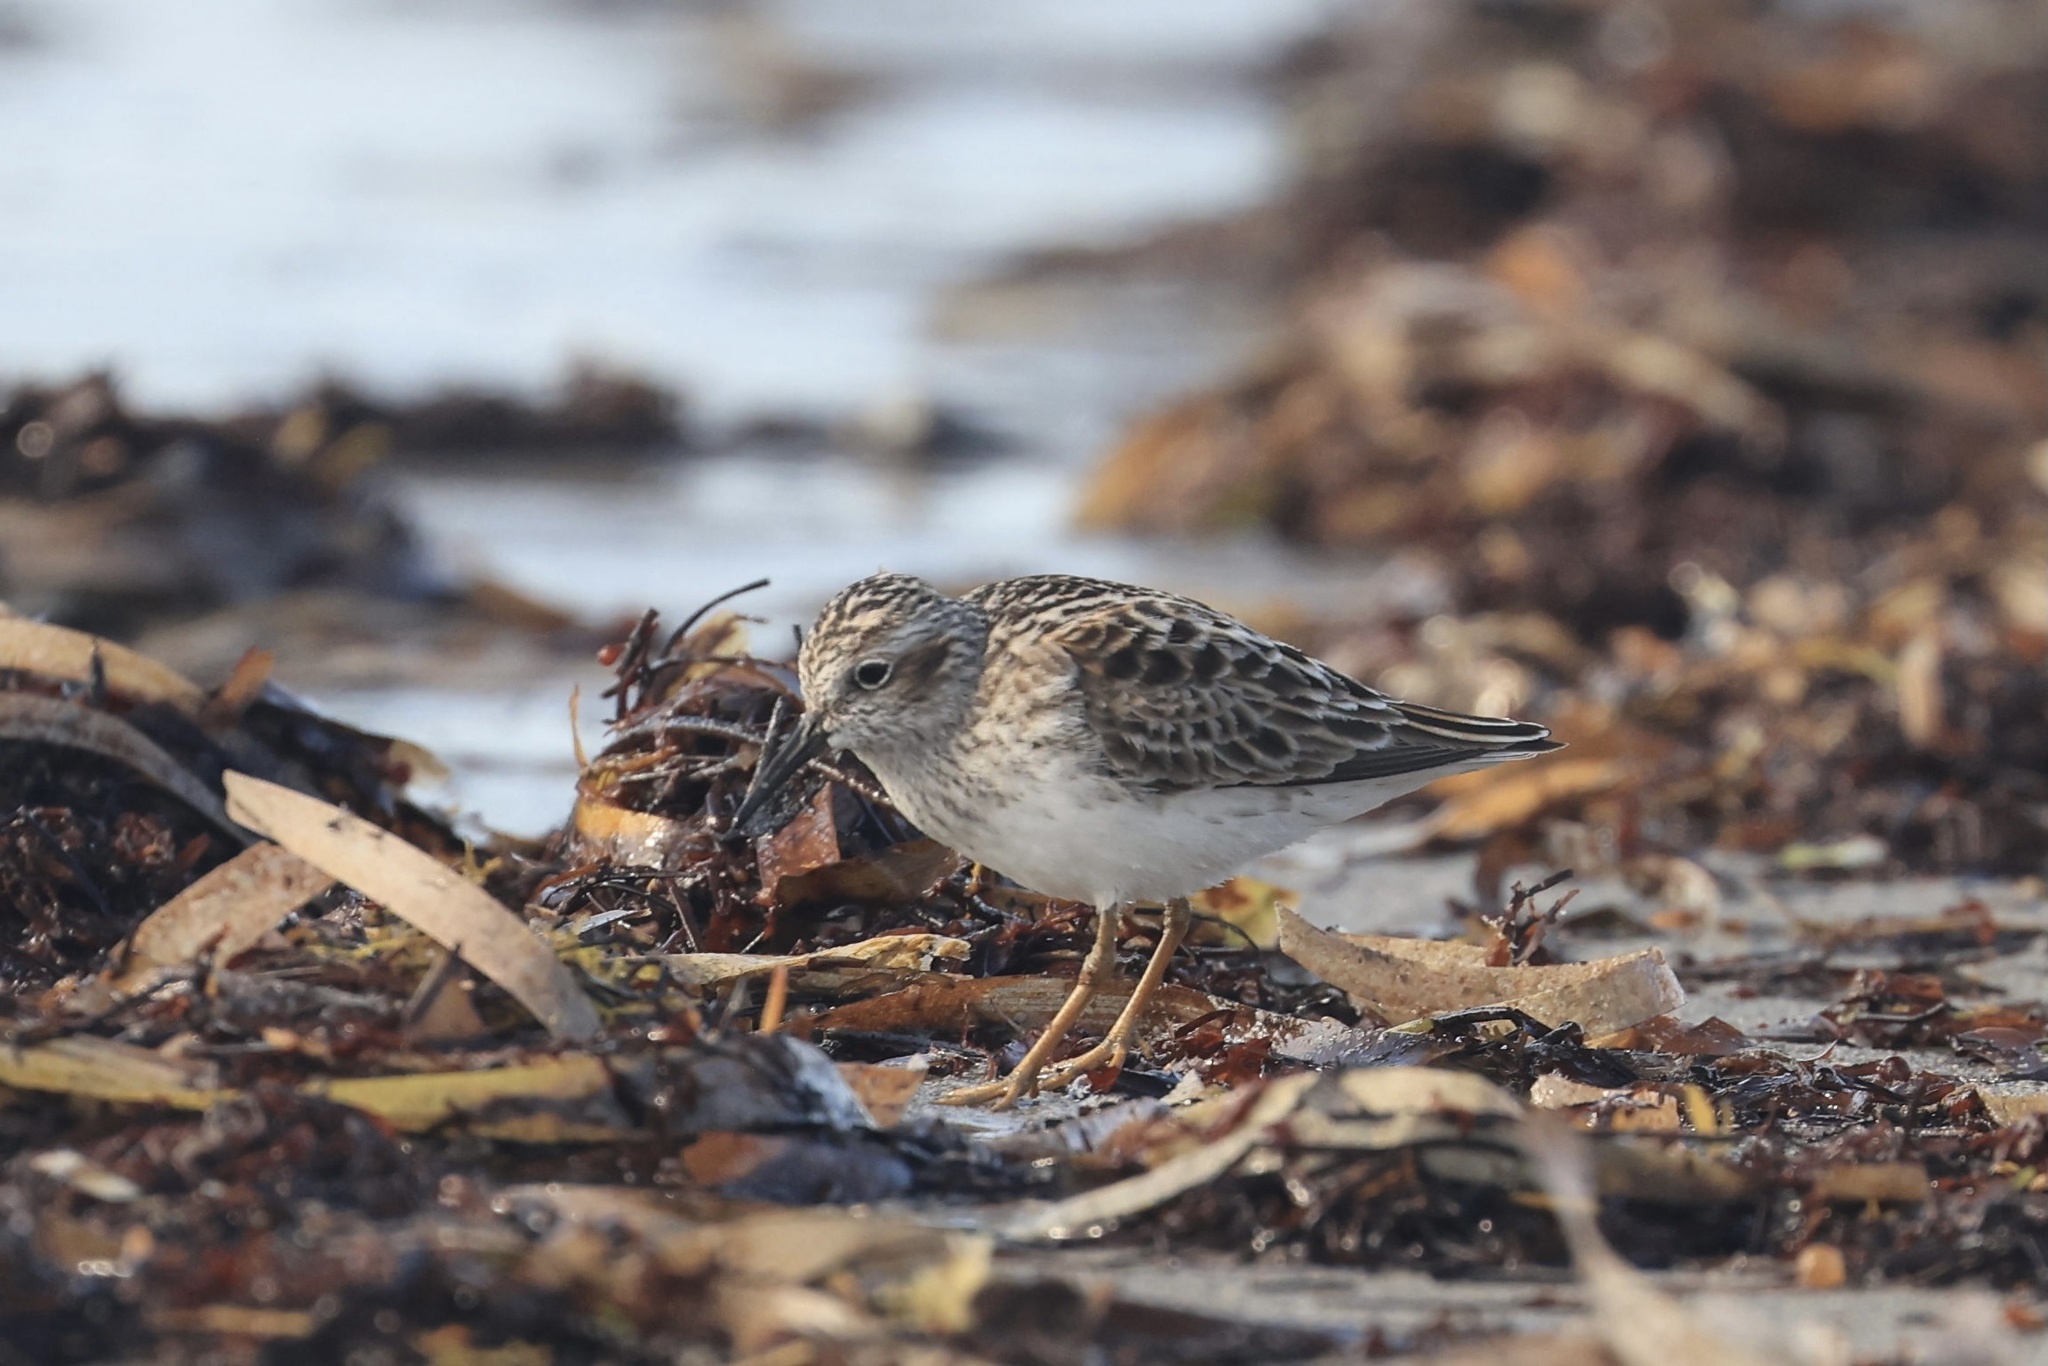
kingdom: Animalia
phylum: Chordata
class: Aves
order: Charadriiformes
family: Scolopacidae
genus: Calidris
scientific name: Calidris minutilla
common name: Least sandpiper
